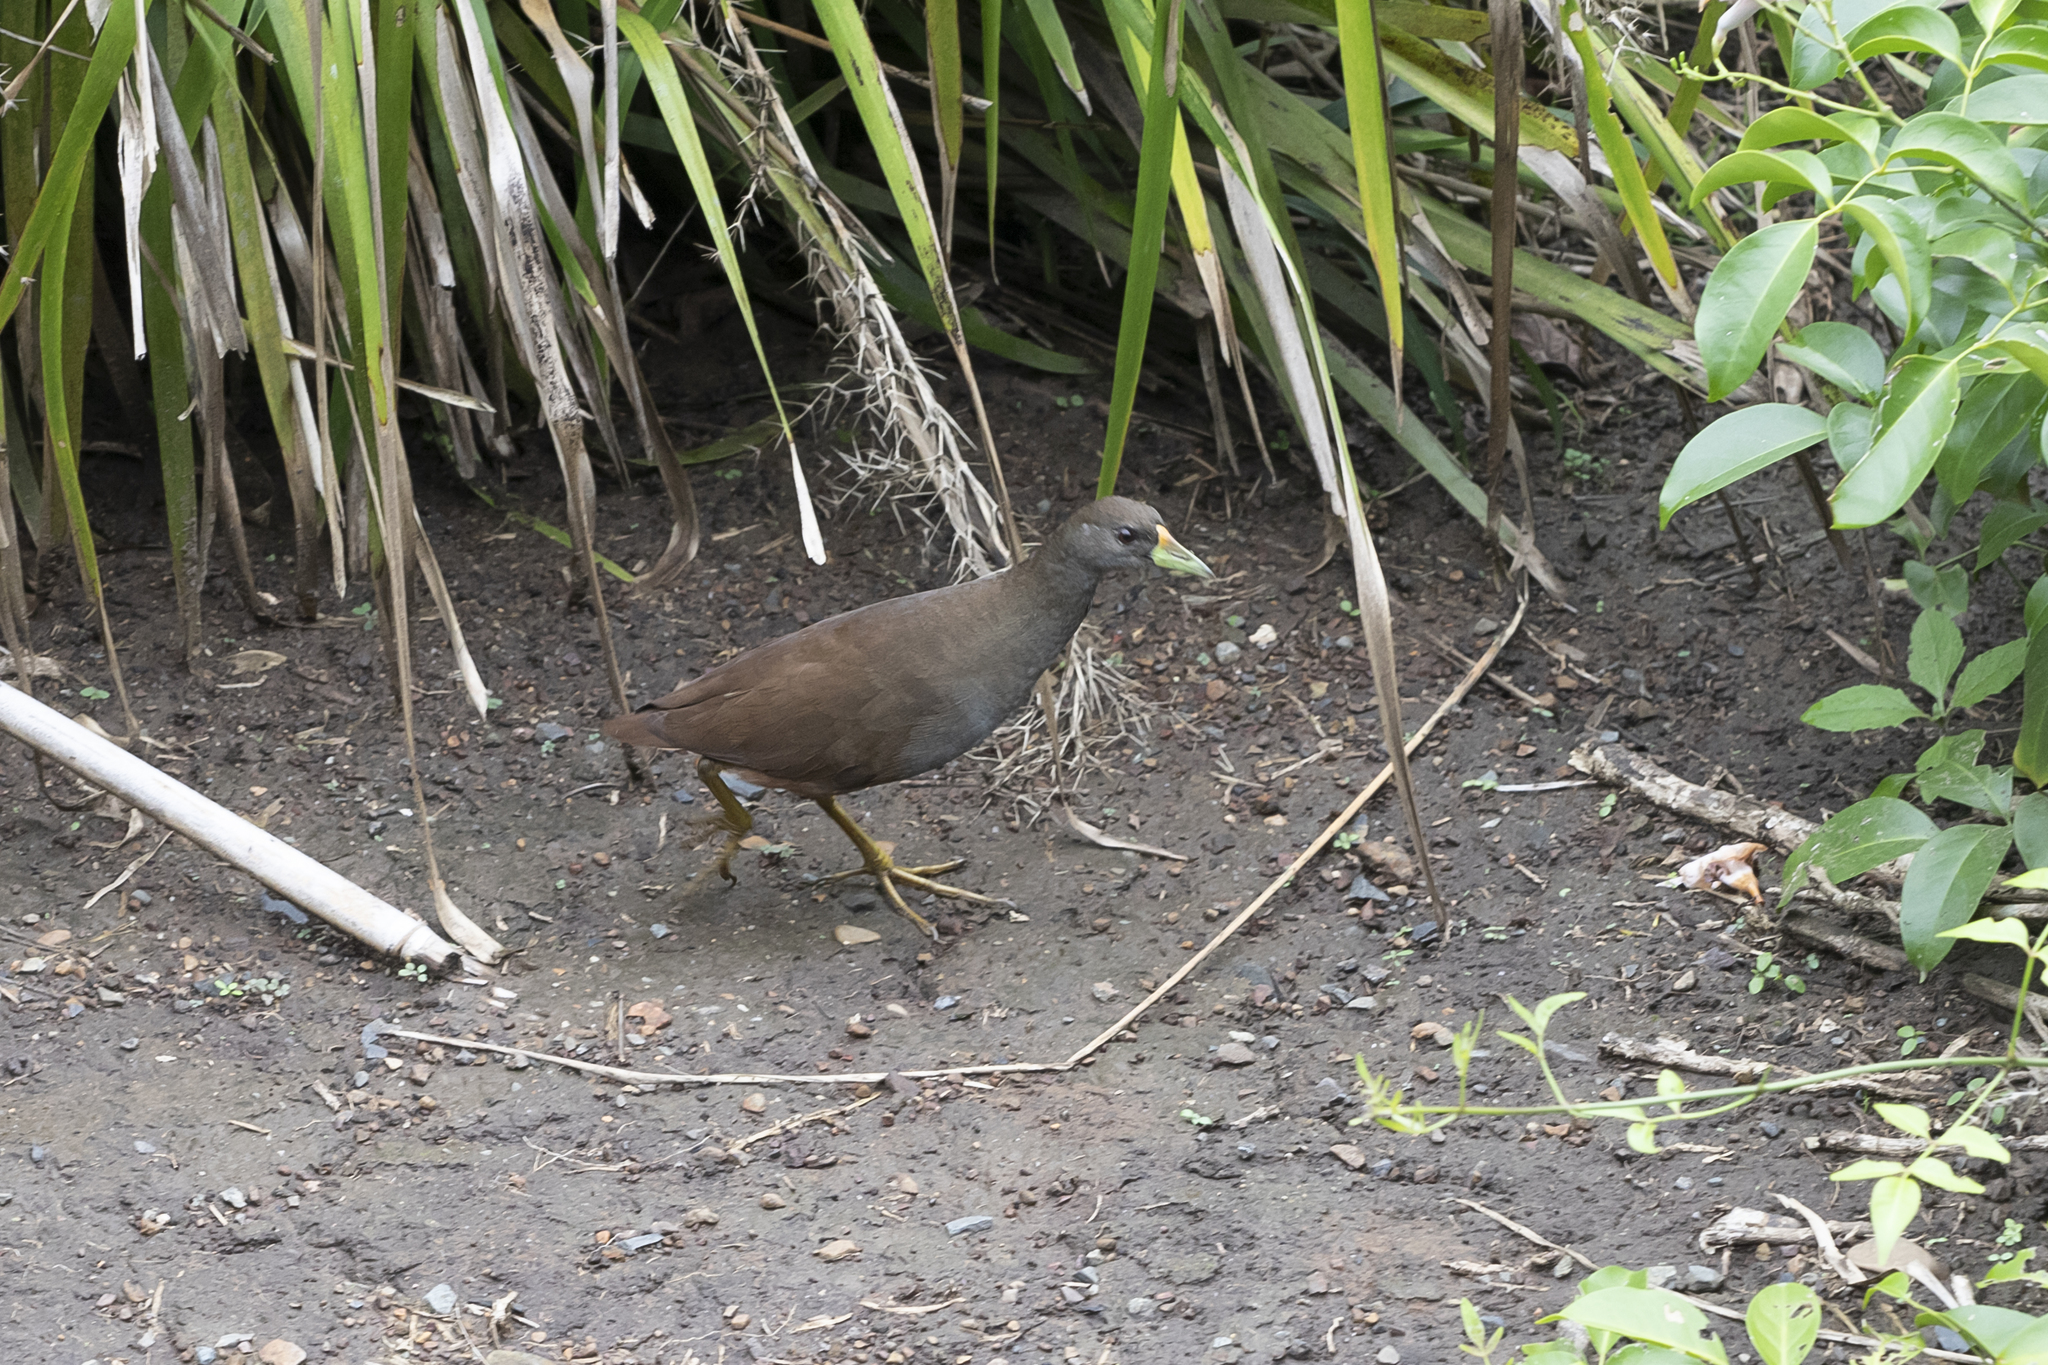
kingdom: Animalia
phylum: Chordata
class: Aves
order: Gruiformes
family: Rallidae
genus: Amaurornis
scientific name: Amaurornis olivacea
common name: Plain bush-hen
